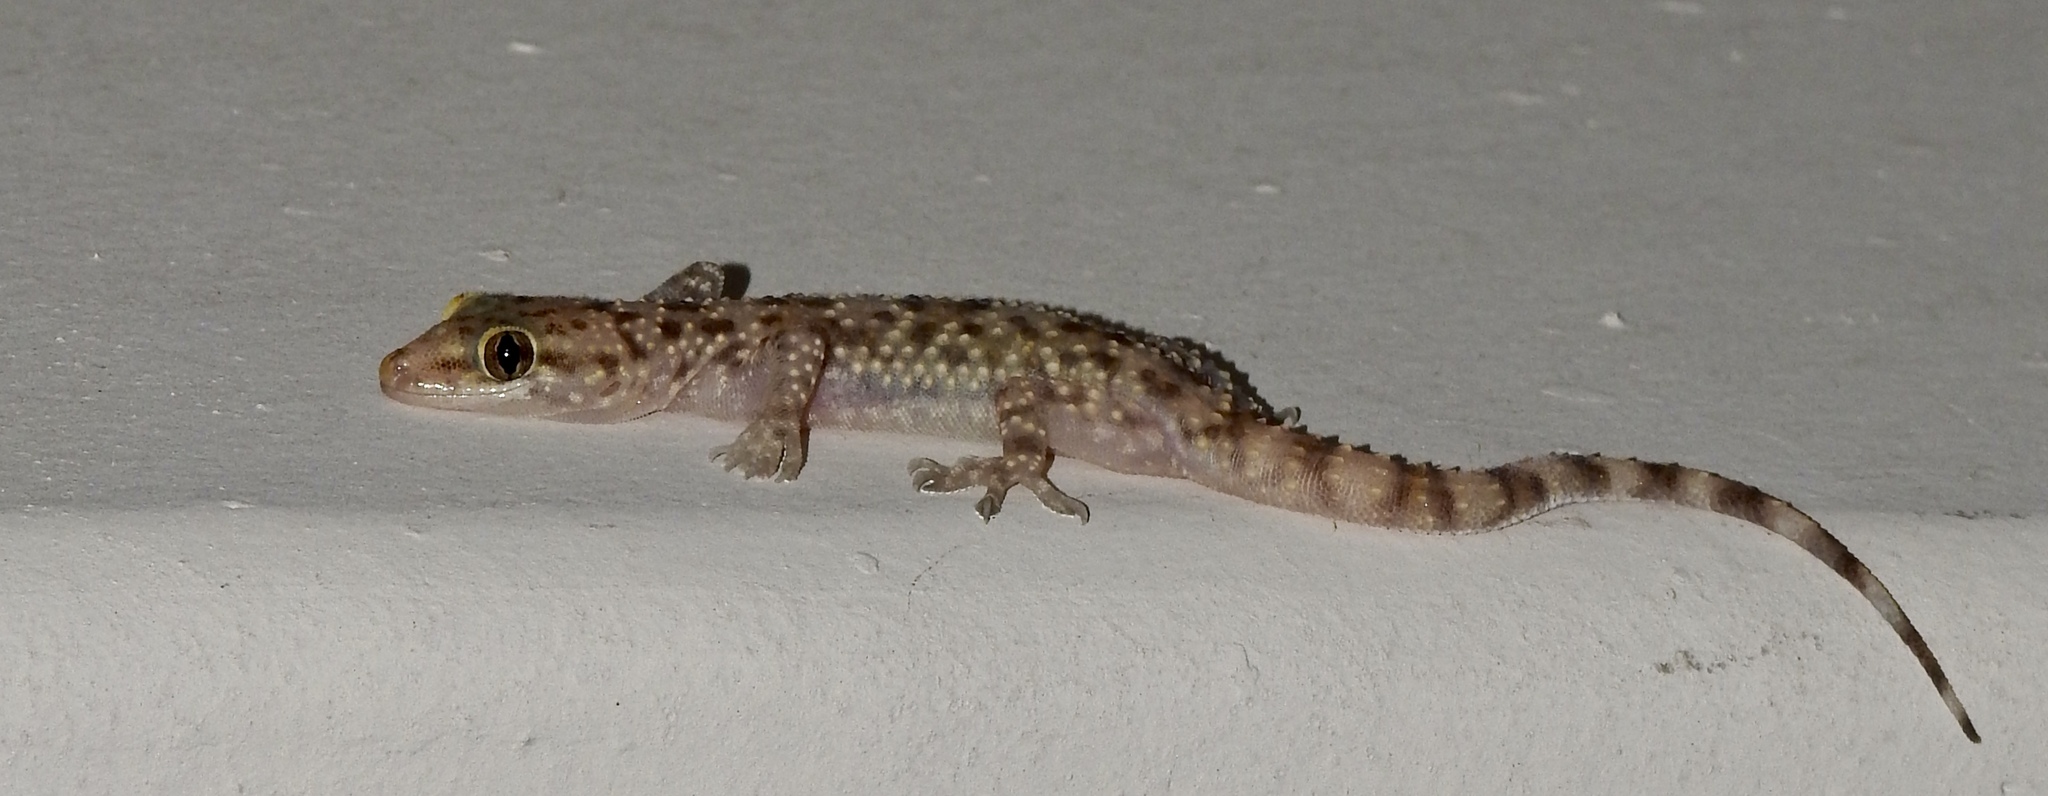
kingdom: Animalia
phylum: Chordata
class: Squamata
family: Gekkonidae
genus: Hemidactylus
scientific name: Hemidactylus turcicus
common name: Turkish gecko
